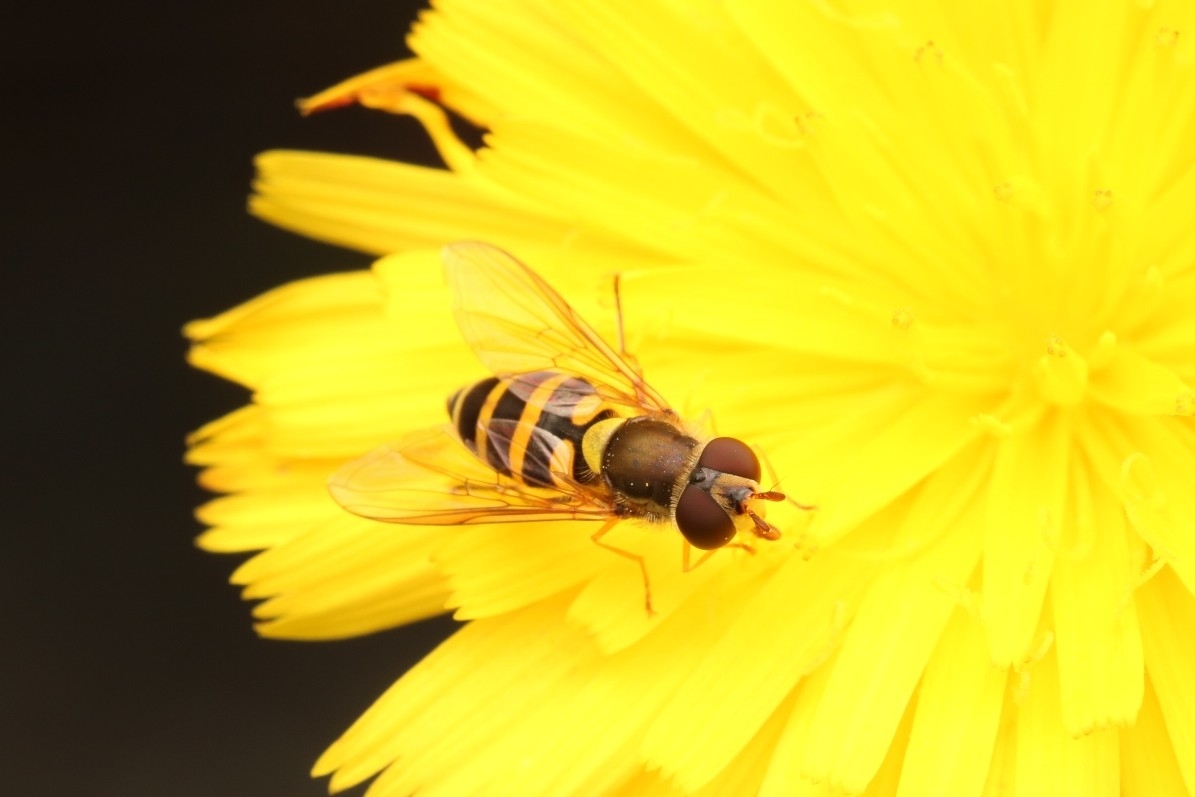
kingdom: Animalia
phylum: Arthropoda
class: Insecta
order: Diptera
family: Syrphidae
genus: Syrphus
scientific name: Syrphus
